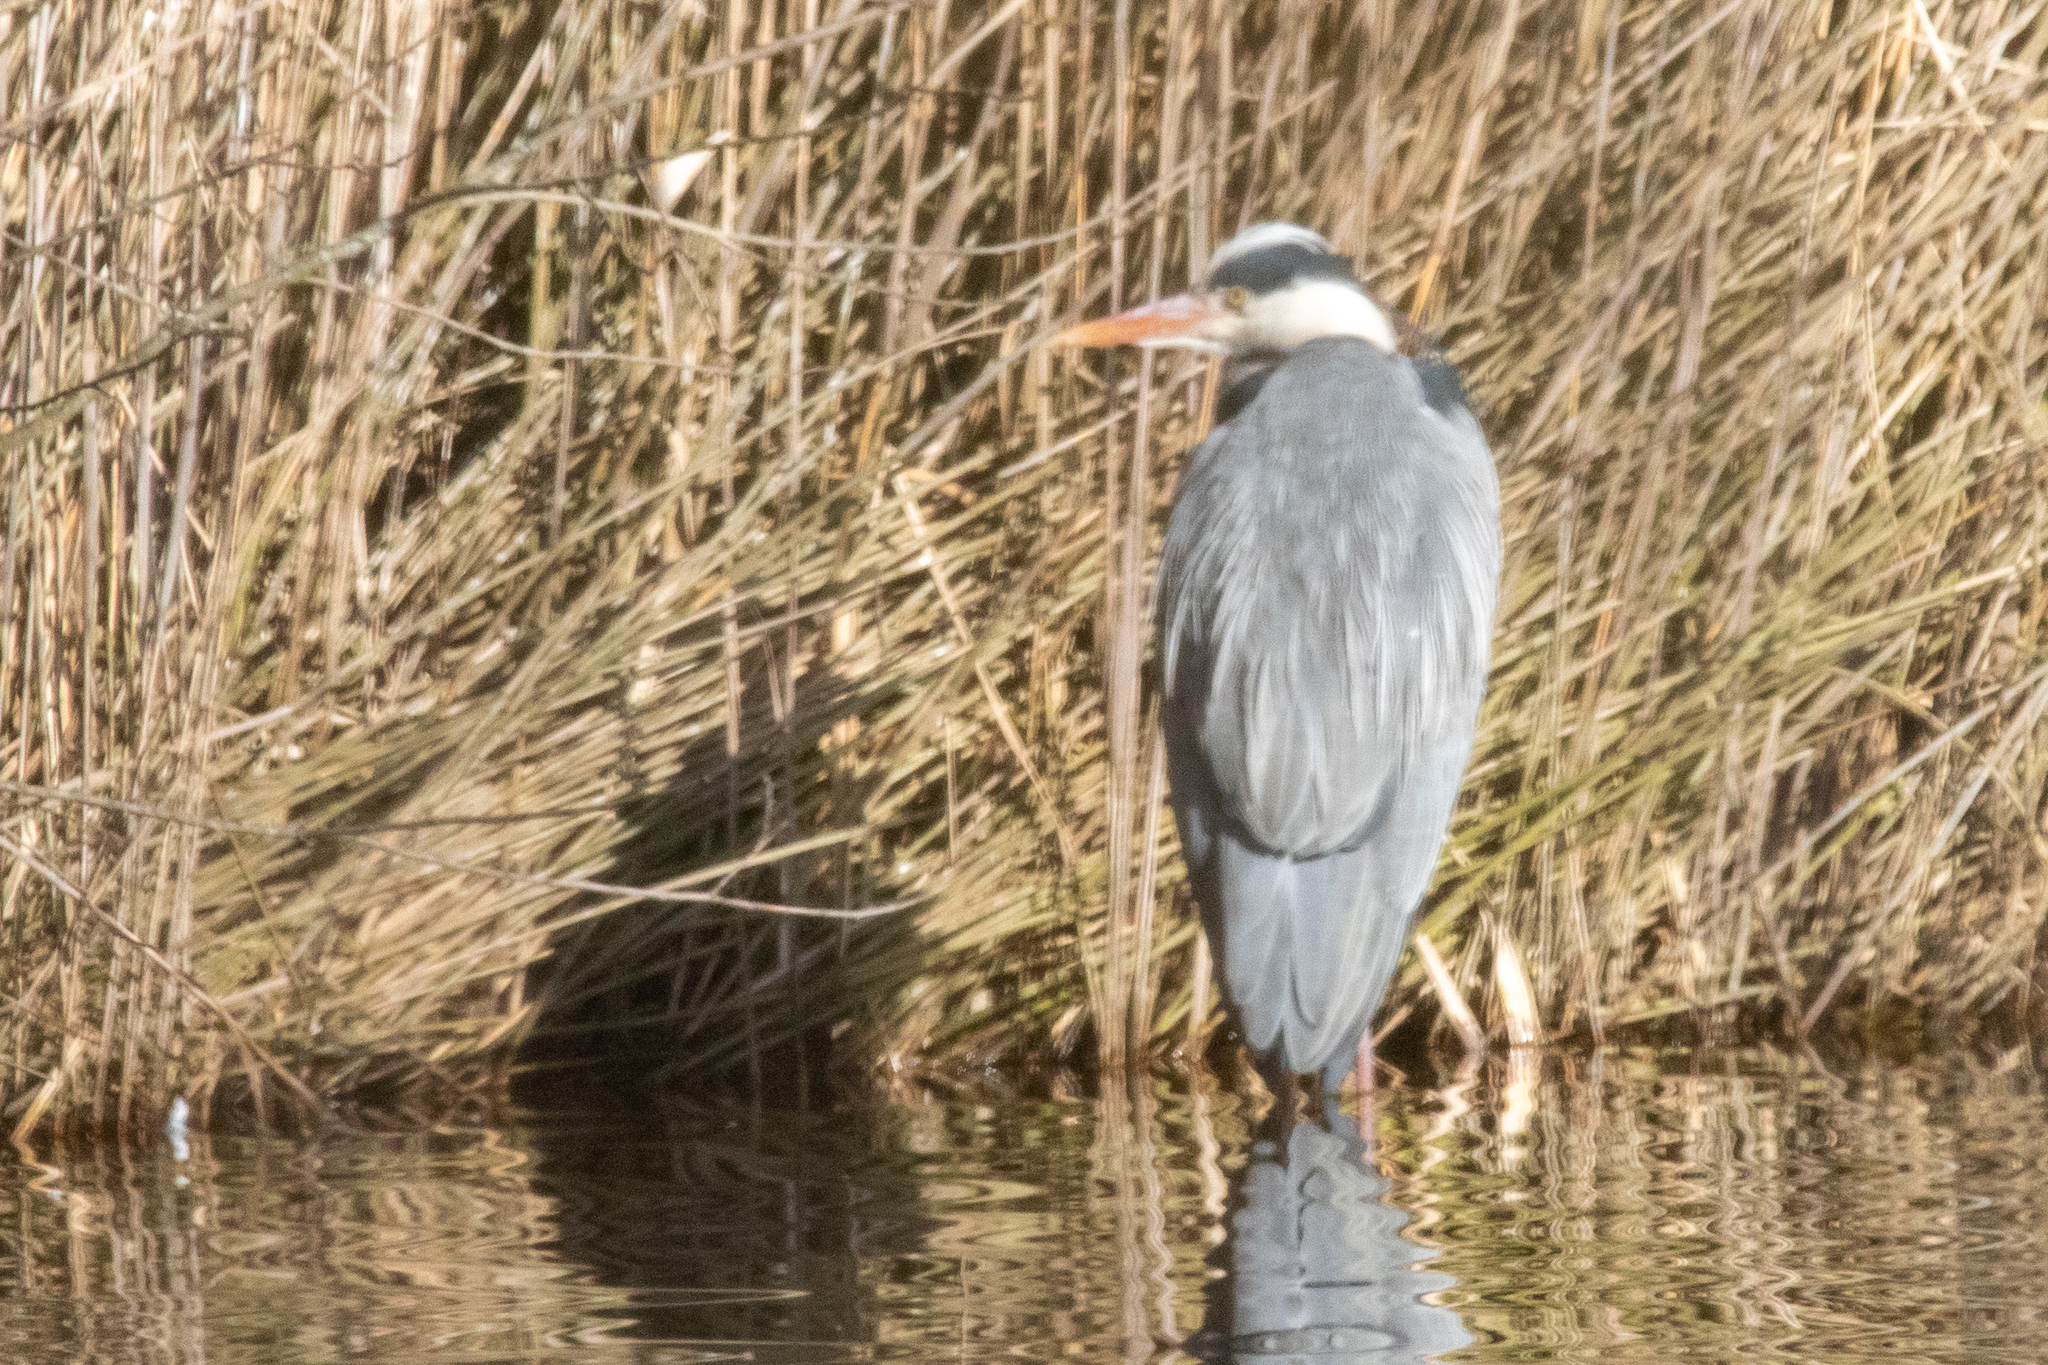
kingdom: Animalia
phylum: Chordata
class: Aves
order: Pelecaniformes
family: Ardeidae
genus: Ardea
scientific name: Ardea cinerea
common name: Grey heron
